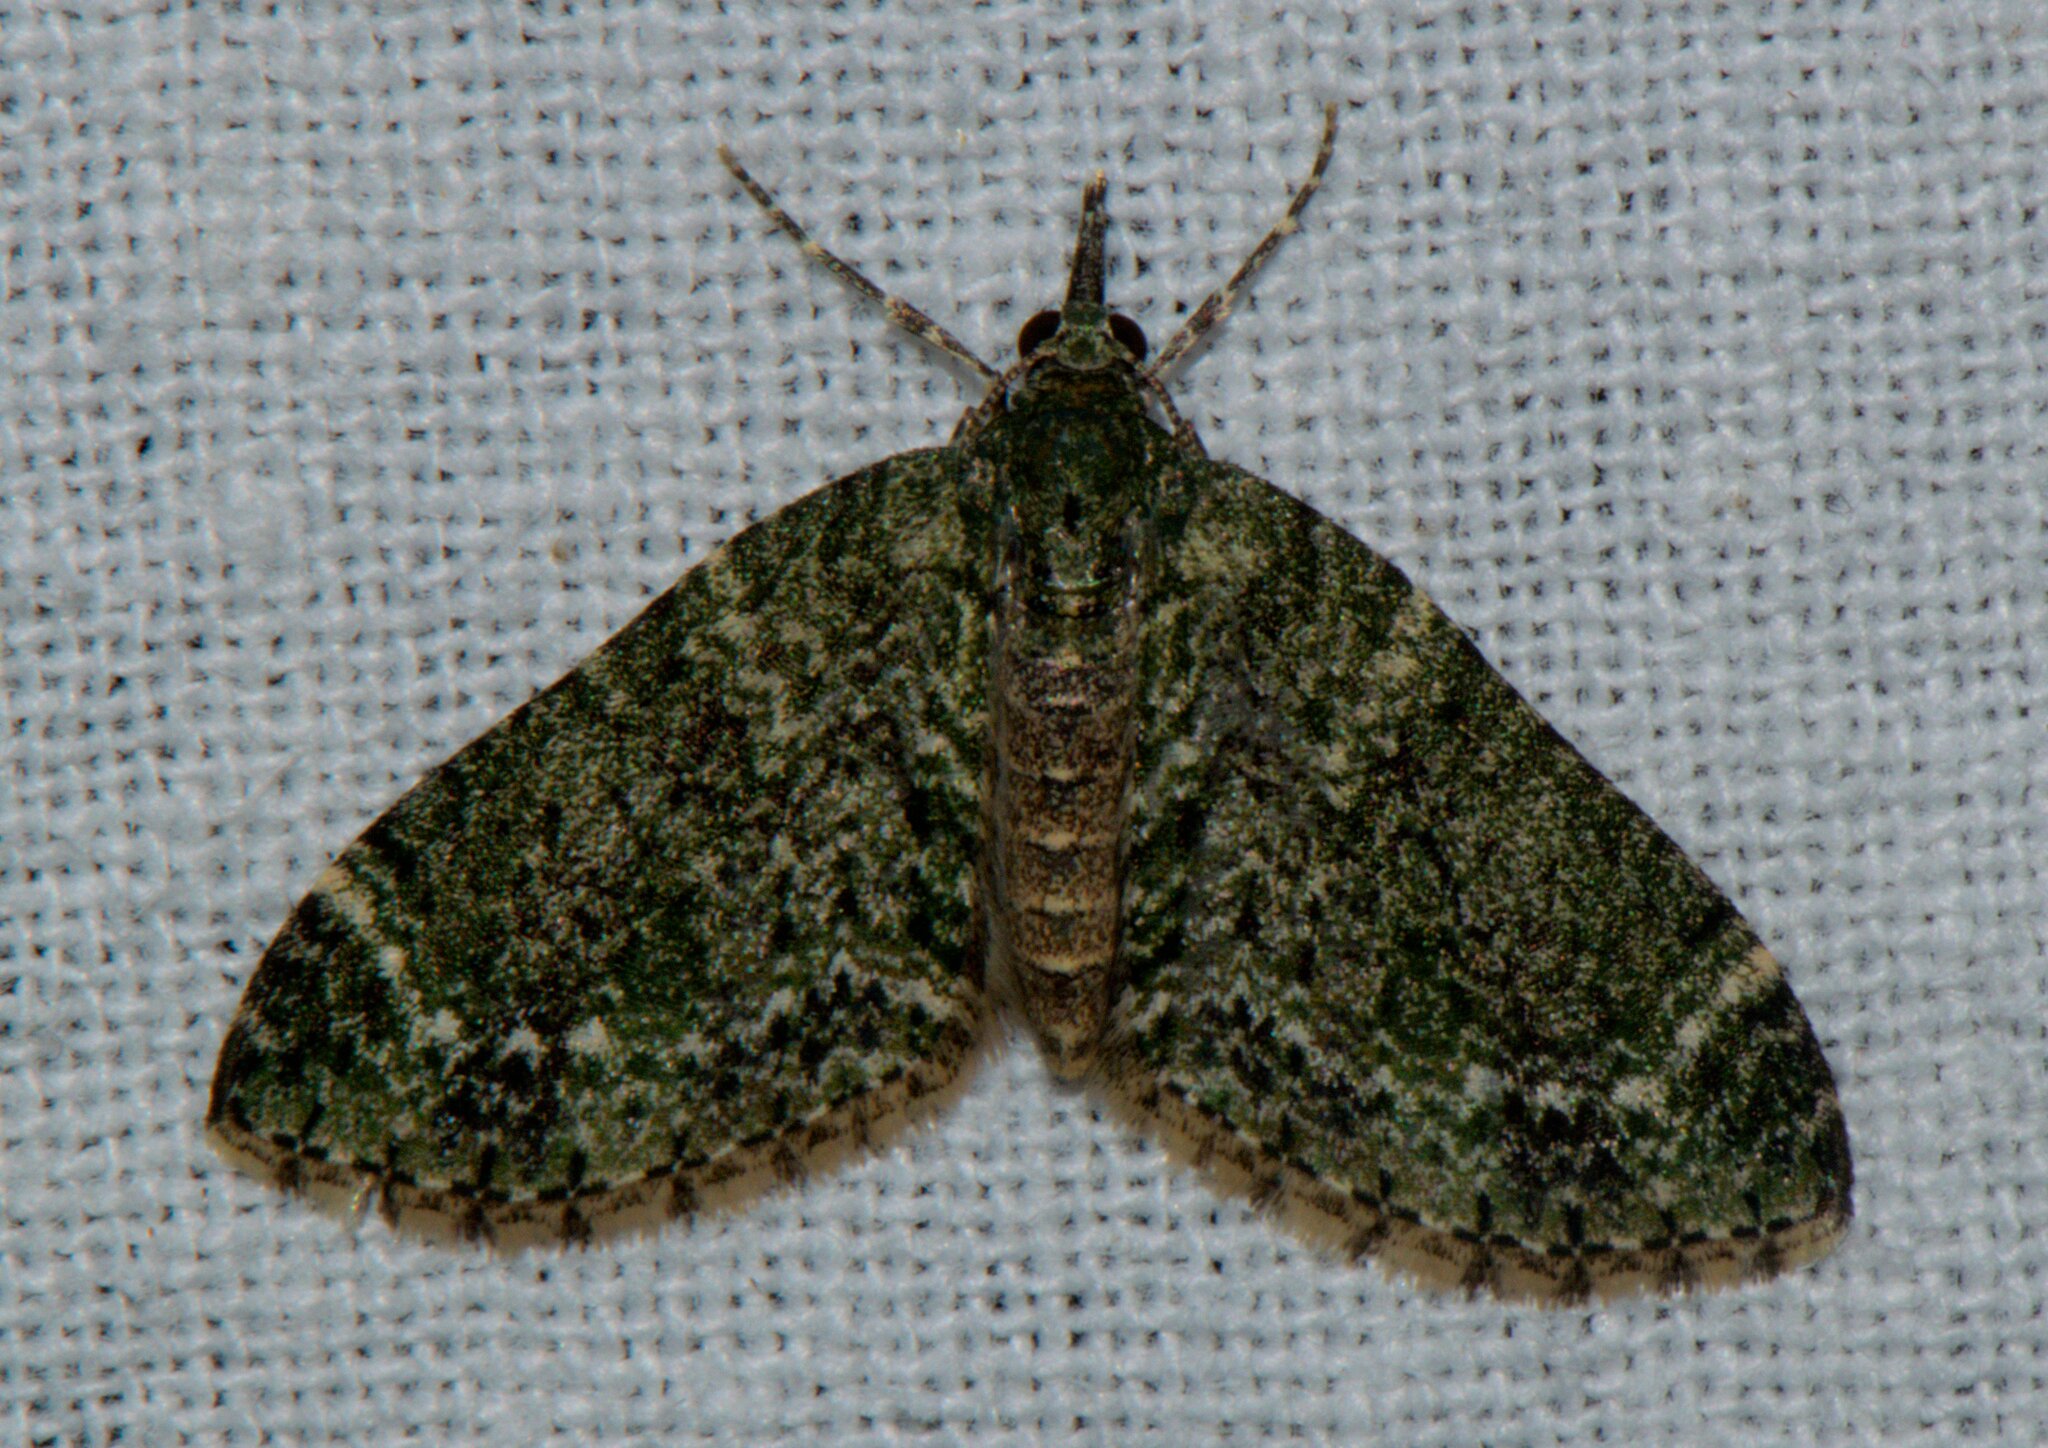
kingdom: Animalia
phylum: Arthropoda
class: Insecta
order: Lepidoptera
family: Geometridae
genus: Acasis
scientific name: Acasis viretata
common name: Yellow-barred brindle
